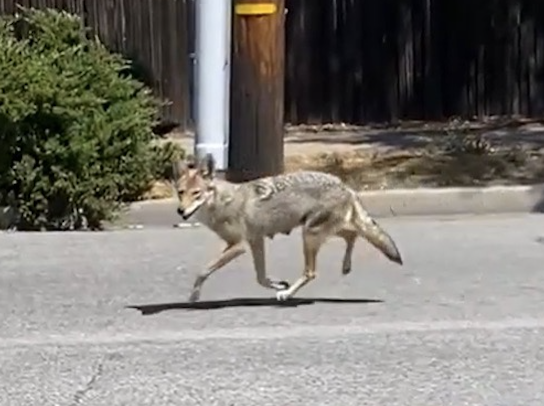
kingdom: Animalia
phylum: Chordata
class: Mammalia
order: Carnivora
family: Canidae
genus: Canis
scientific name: Canis latrans
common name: Coyote
